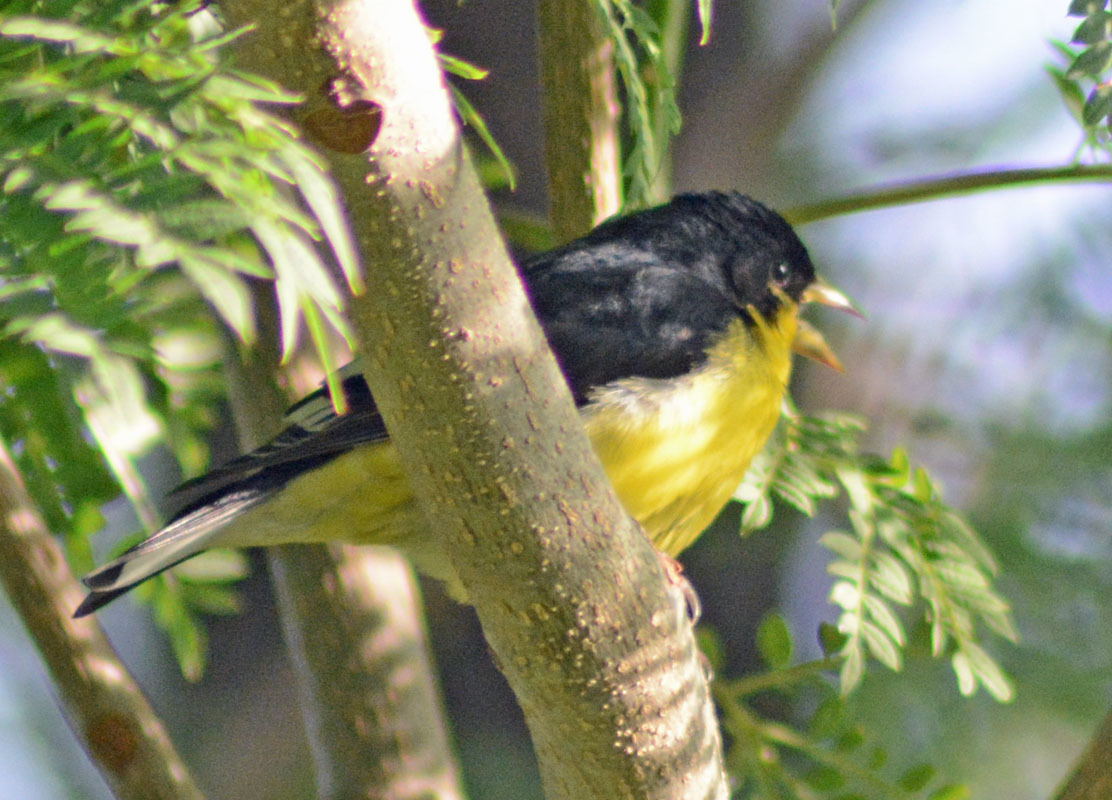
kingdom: Animalia
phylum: Chordata
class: Aves
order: Passeriformes
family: Fringillidae
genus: Spinus
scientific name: Spinus psaltria
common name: Lesser goldfinch
